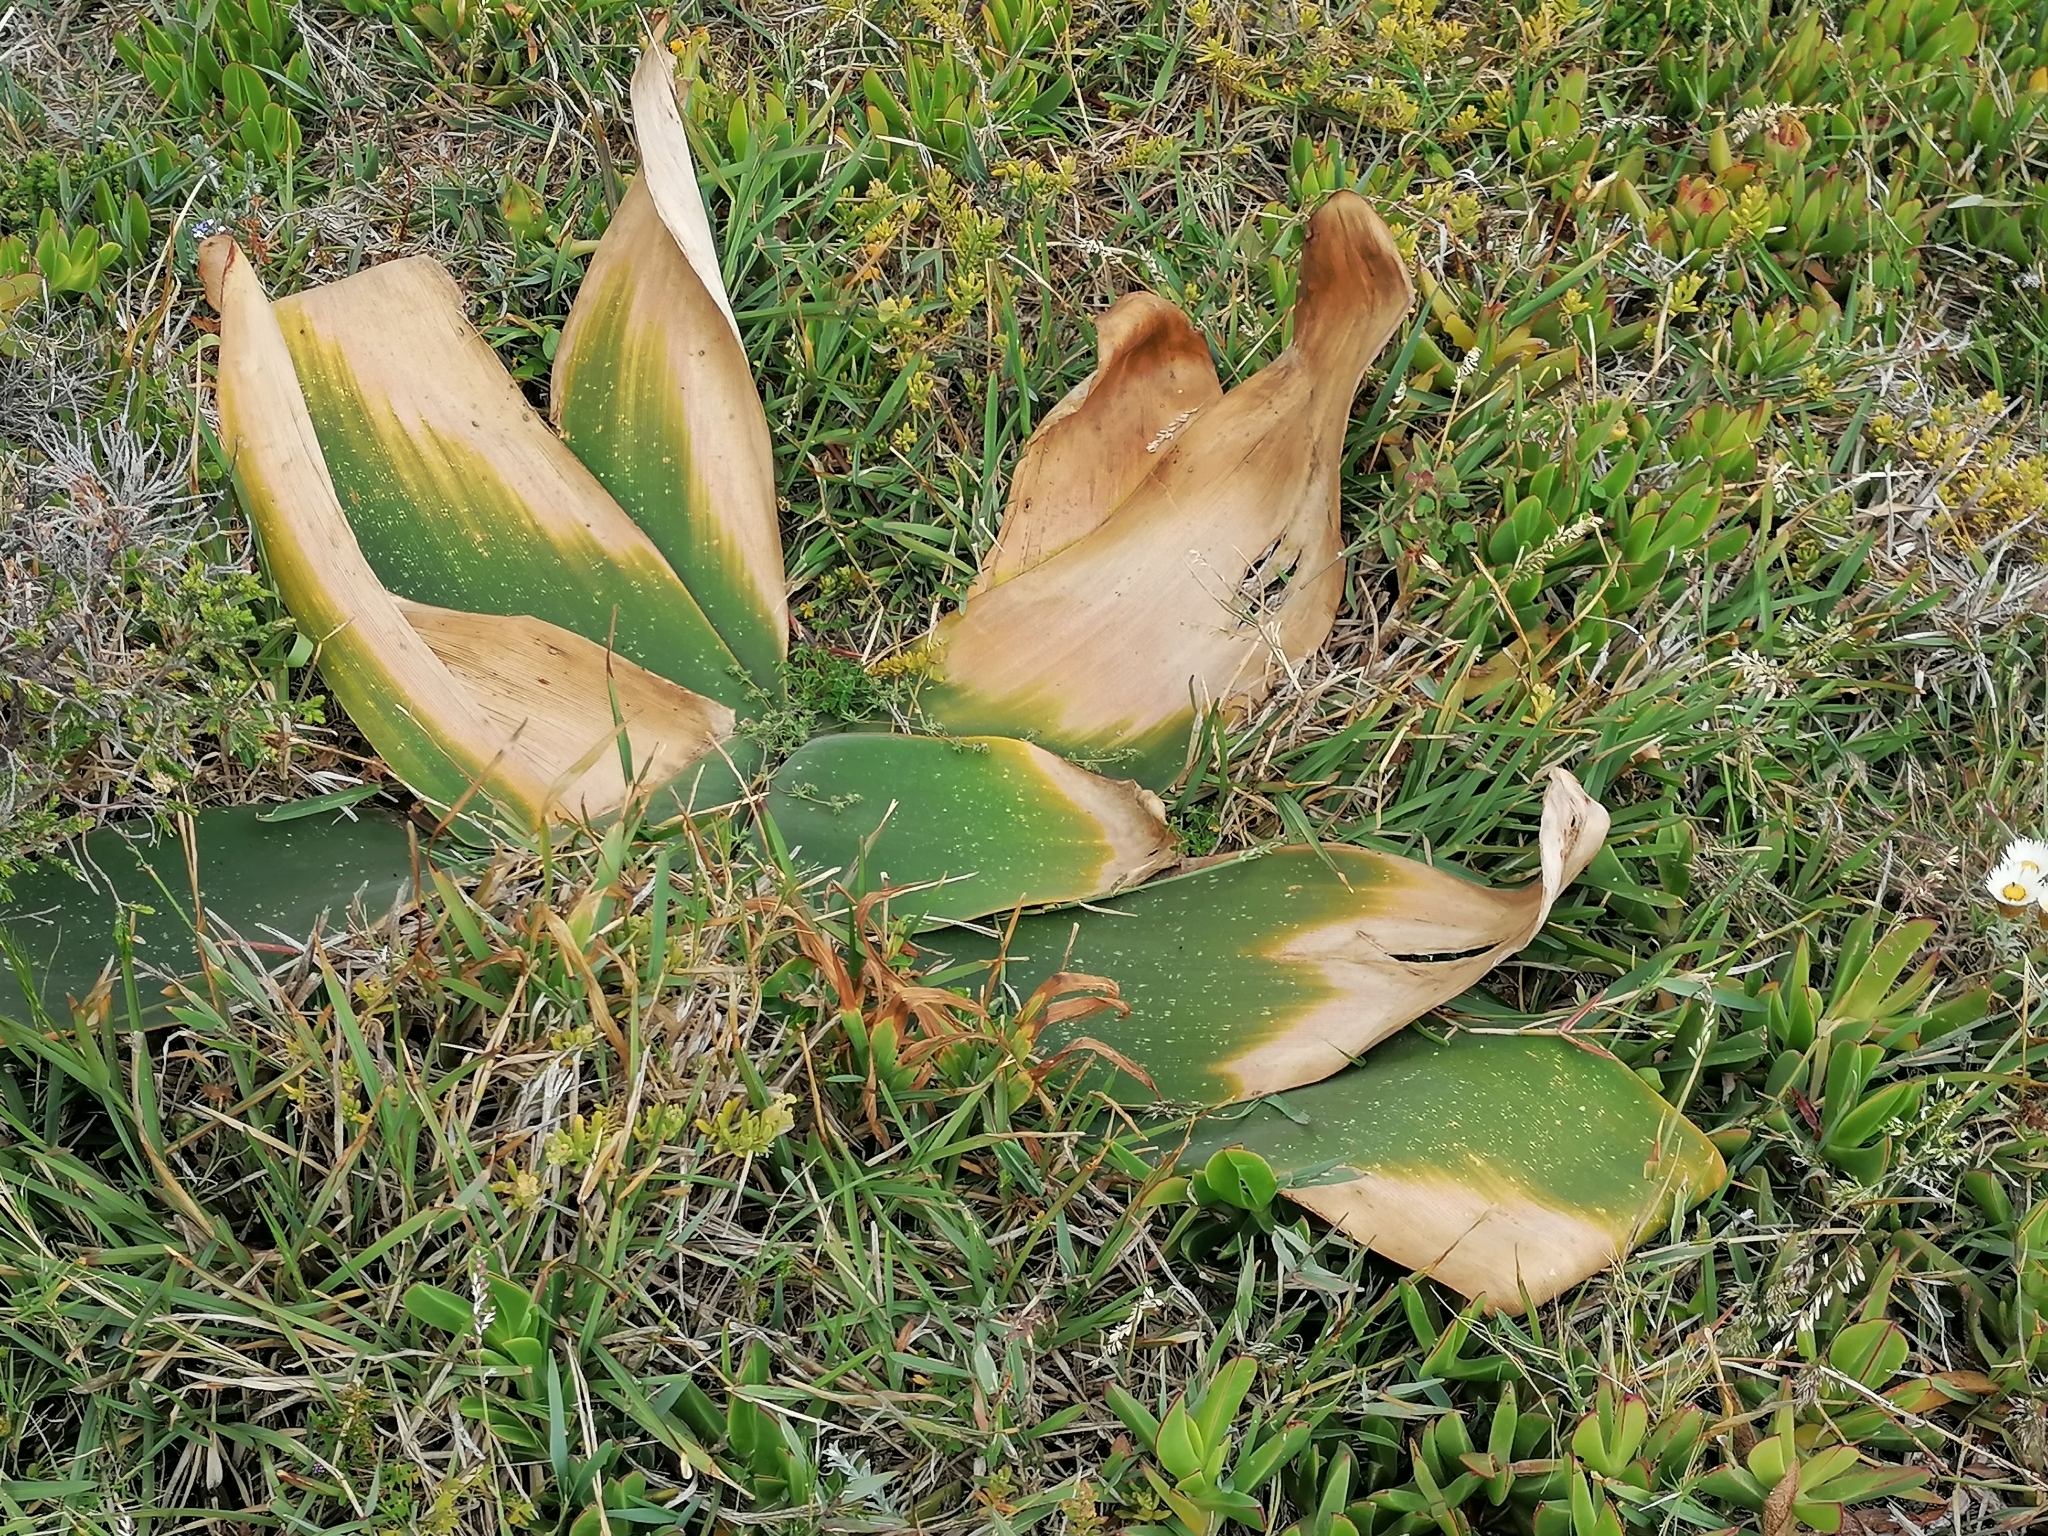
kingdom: Plantae
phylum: Tracheophyta
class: Liliopsida
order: Asparagales
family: Amaryllidaceae
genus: Brunsvigia
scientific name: Brunsvigia orientalis
